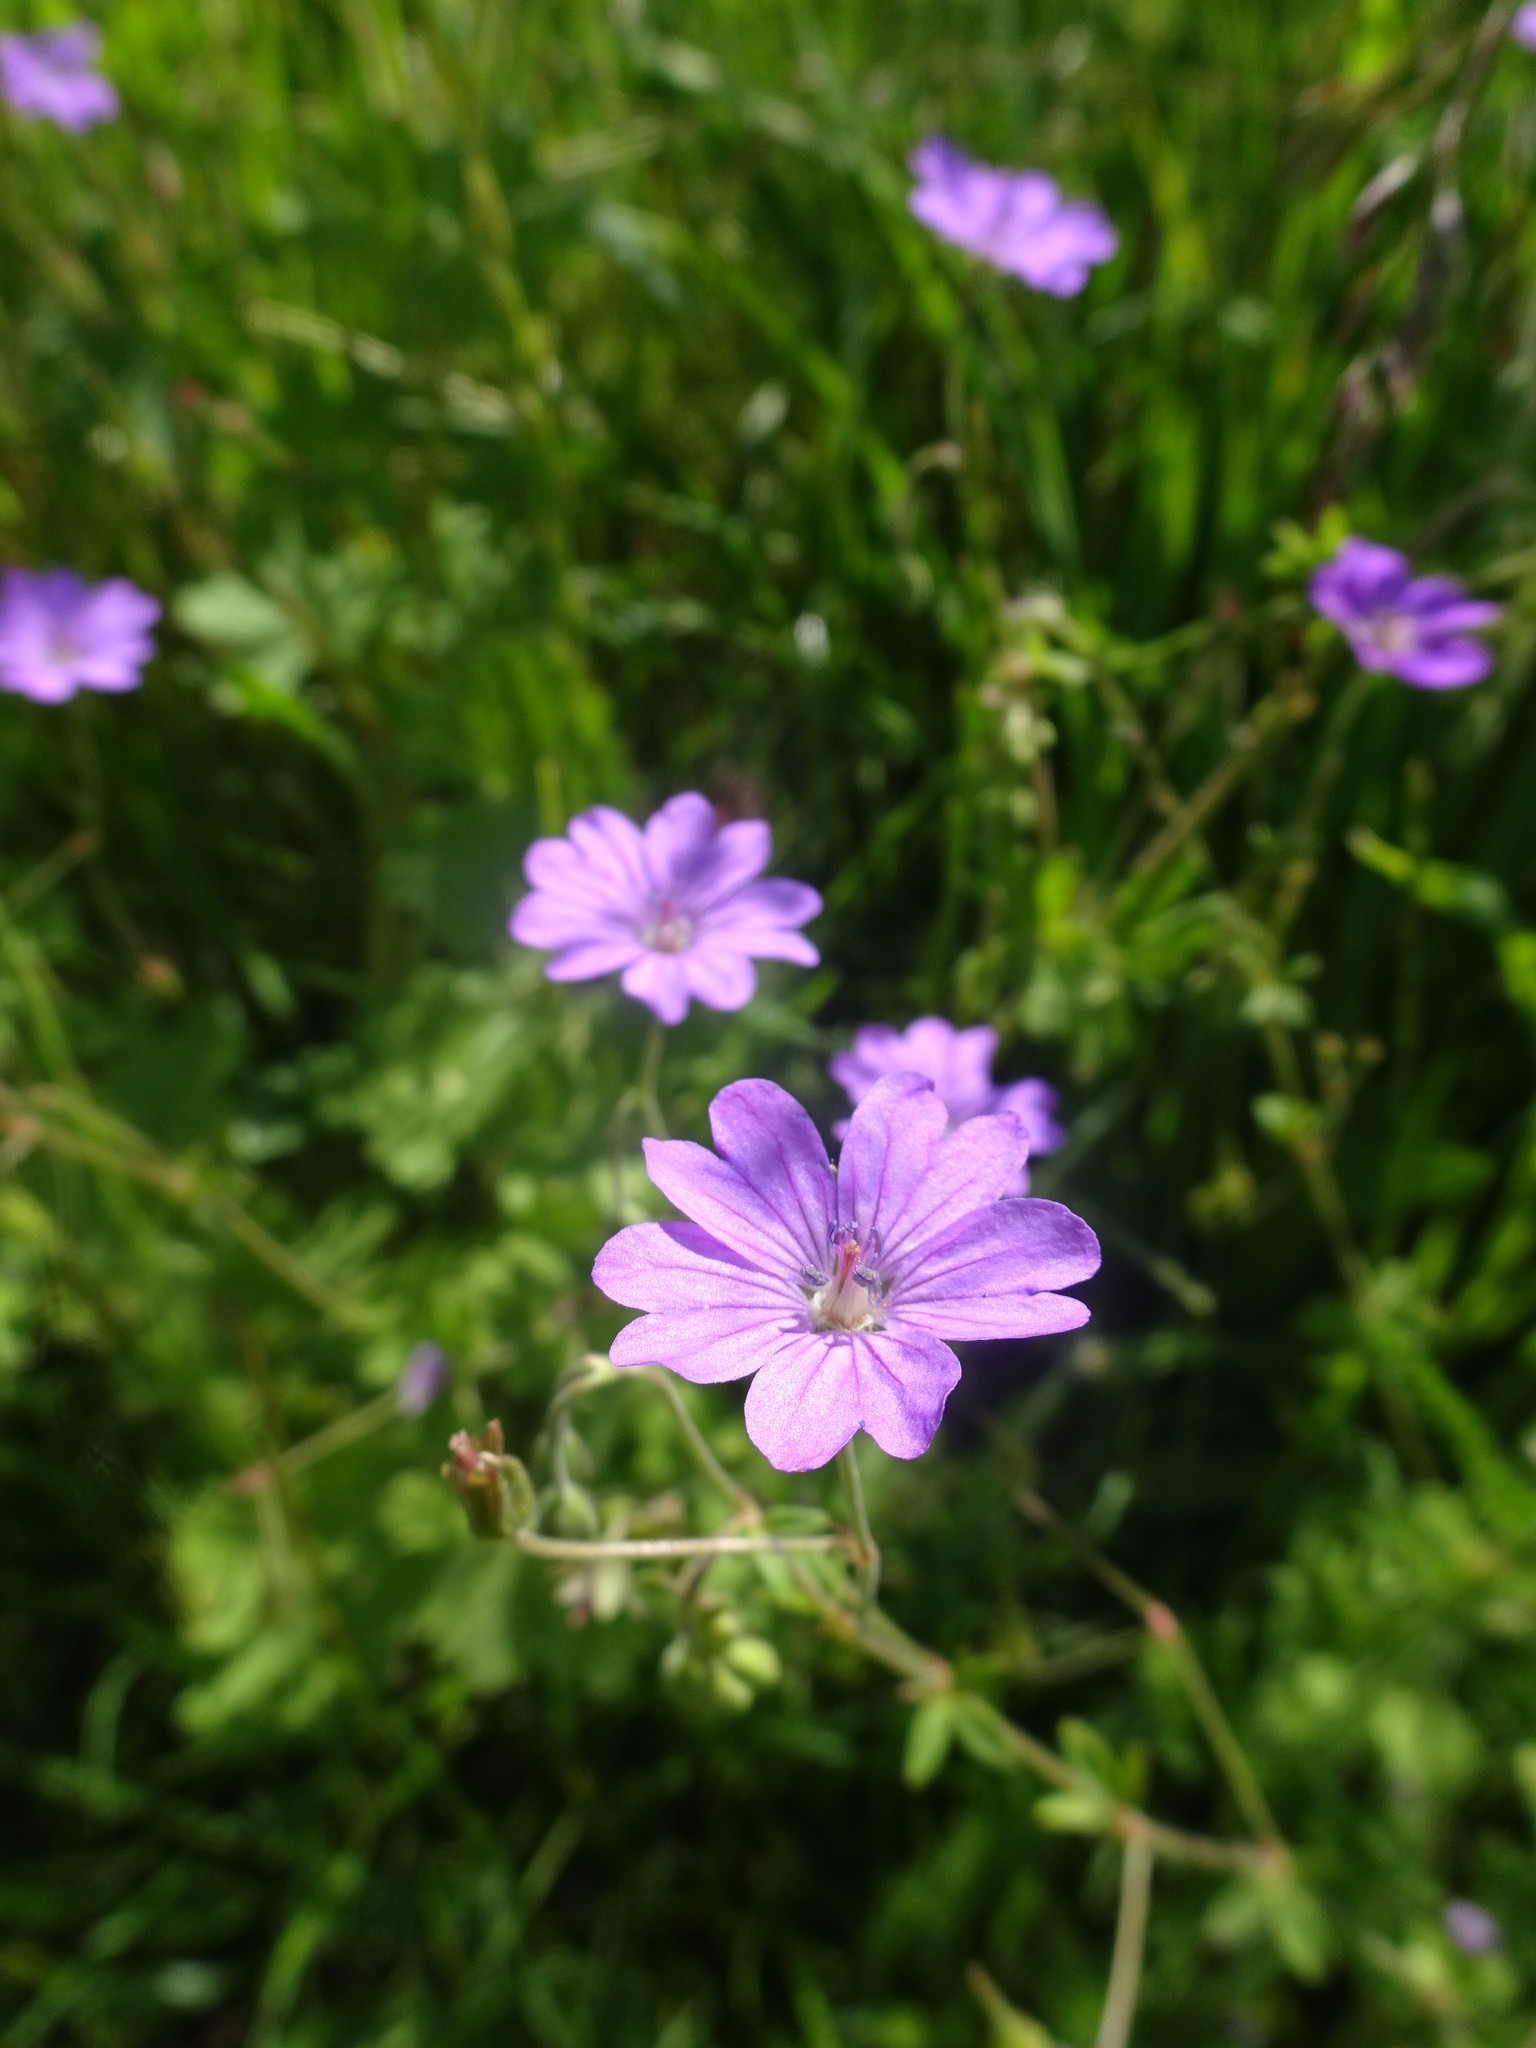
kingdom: Plantae
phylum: Tracheophyta
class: Magnoliopsida
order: Geraniales
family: Geraniaceae
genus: Geranium
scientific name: Geranium pyrenaicum
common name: Hedgerow crane's-bill
